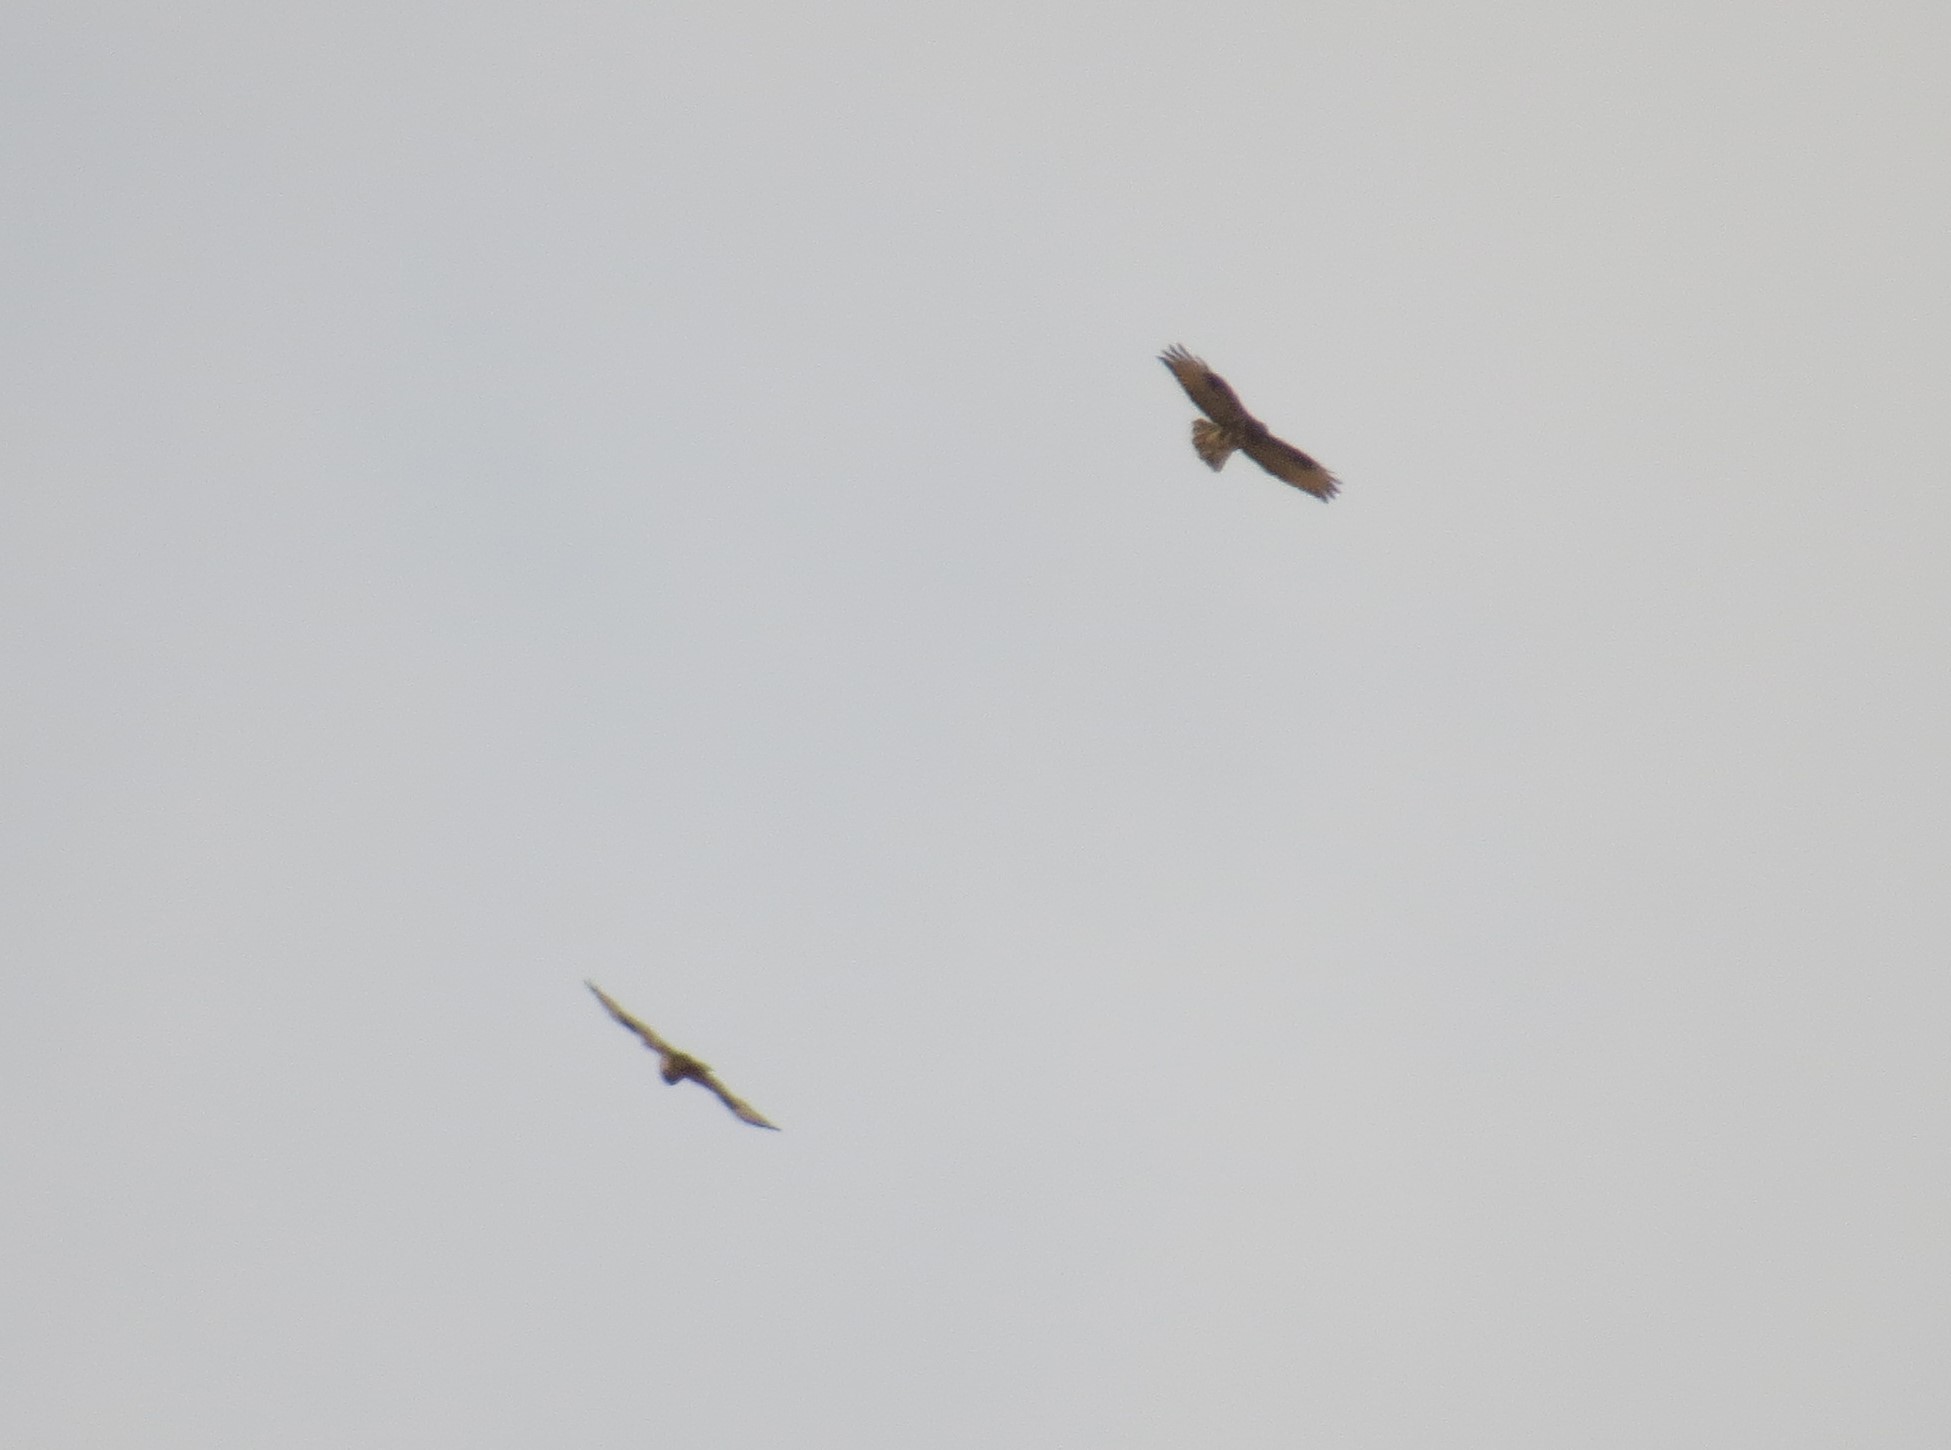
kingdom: Animalia
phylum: Chordata
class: Aves
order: Accipitriformes
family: Accipitridae
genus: Buteo
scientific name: Buteo japonicus
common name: Eastern buzzard
